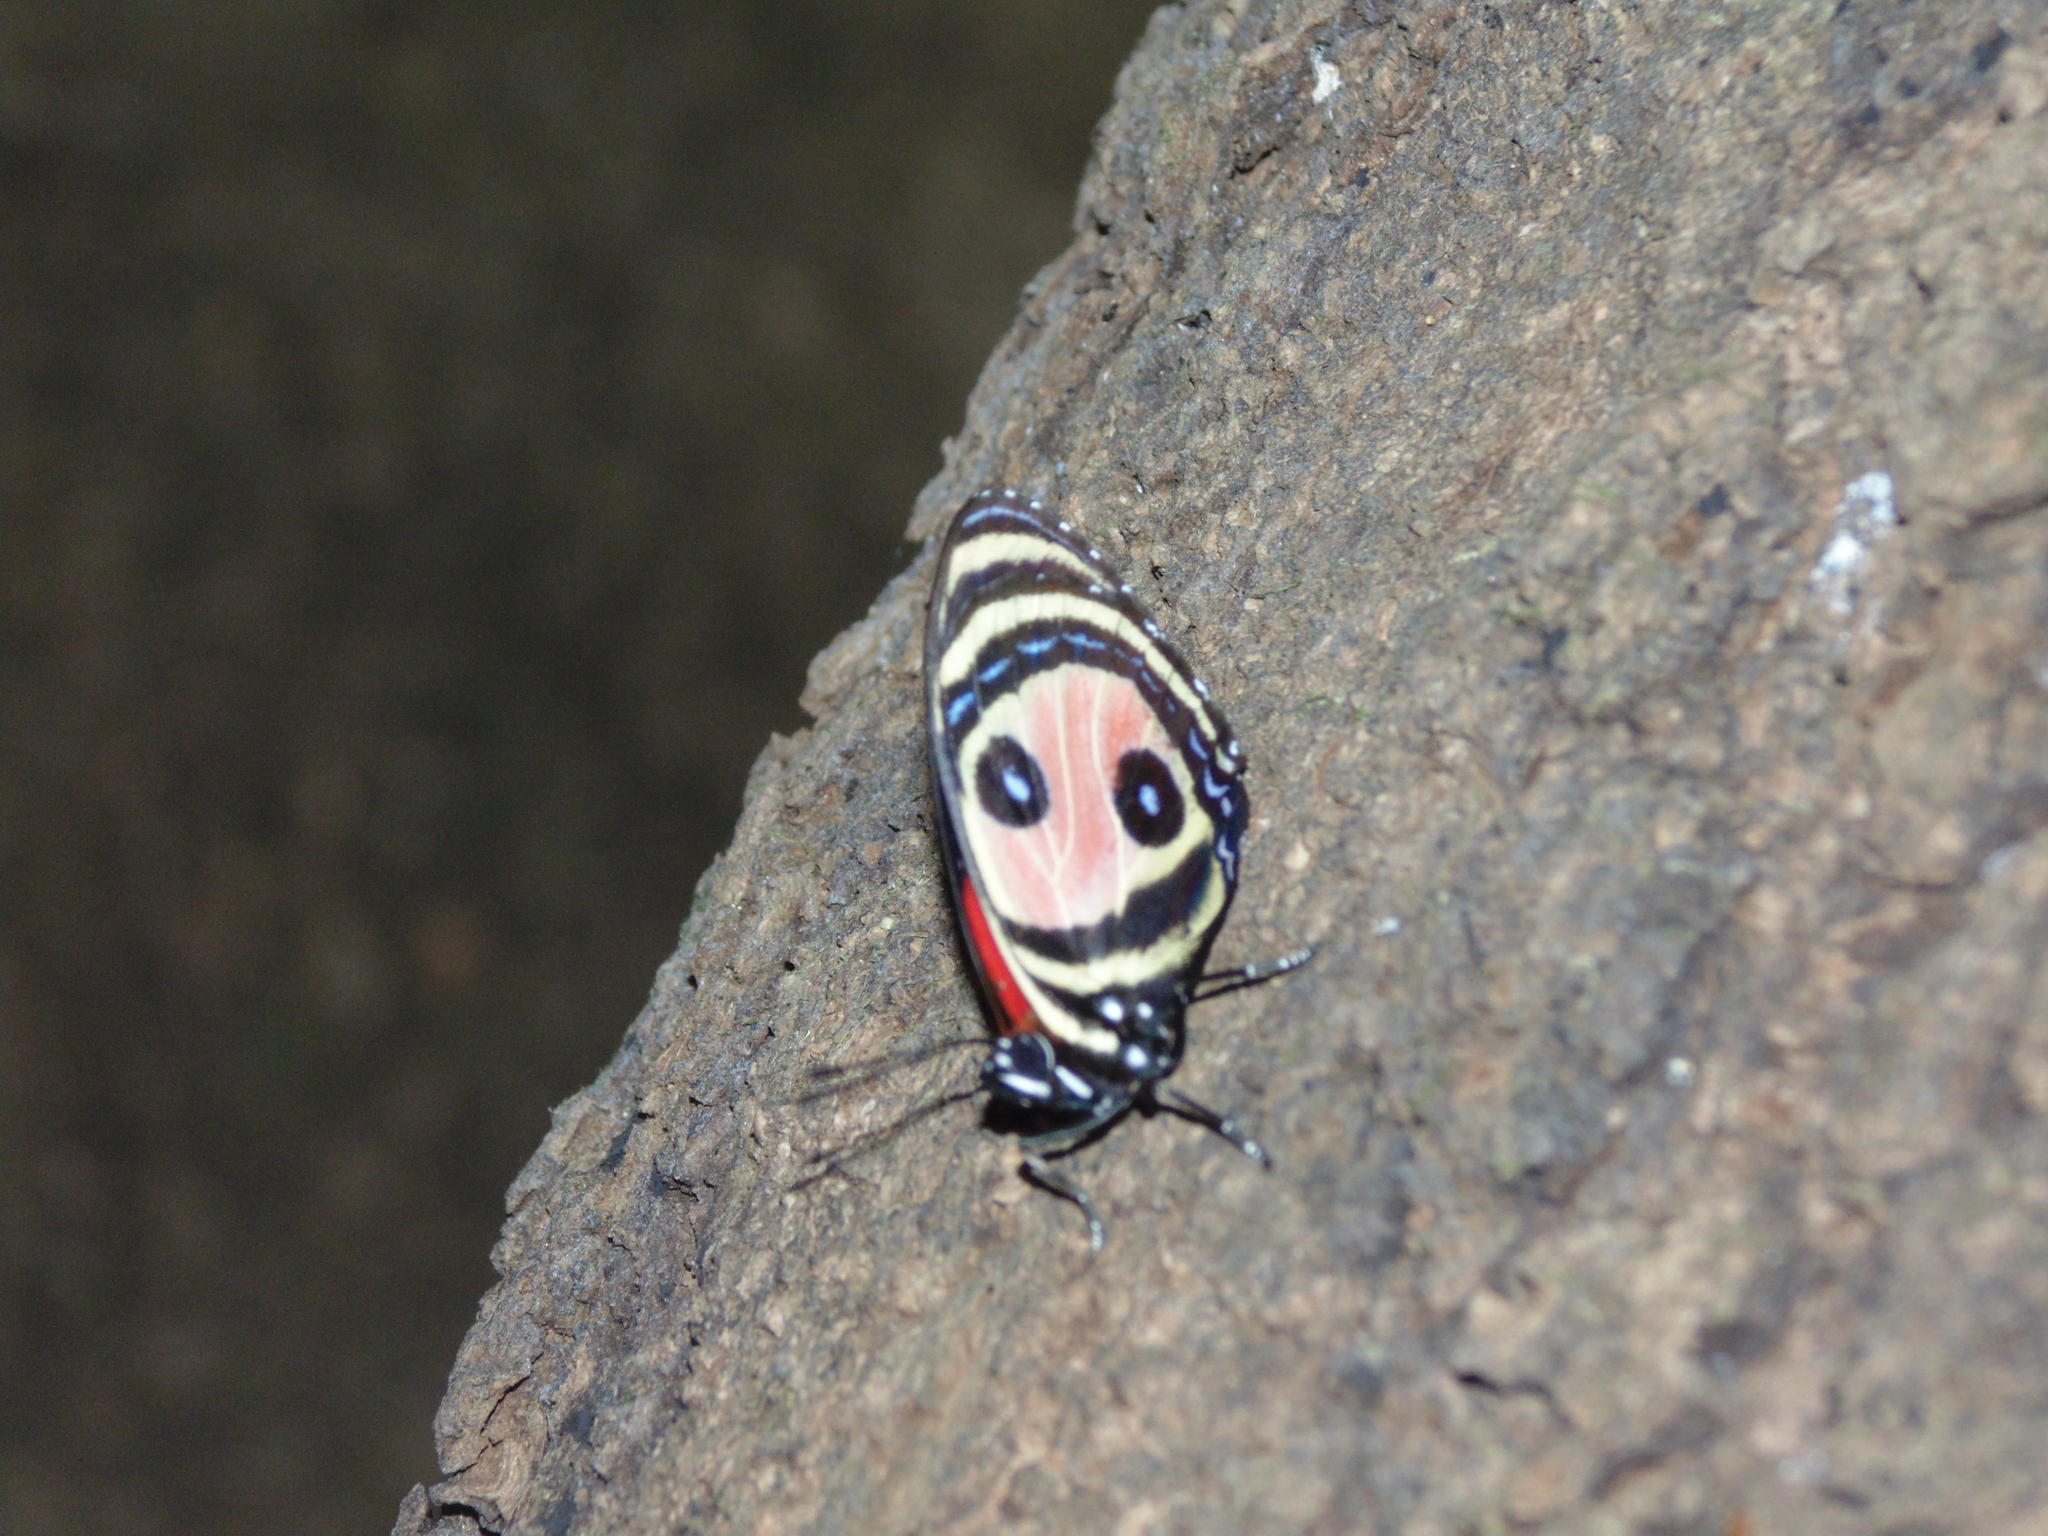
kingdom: Animalia
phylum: Arthropoda
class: Insecta
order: Lepidoptera
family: Nymphalidae
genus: Catagramma
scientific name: Catagramma Callicore pitheas
